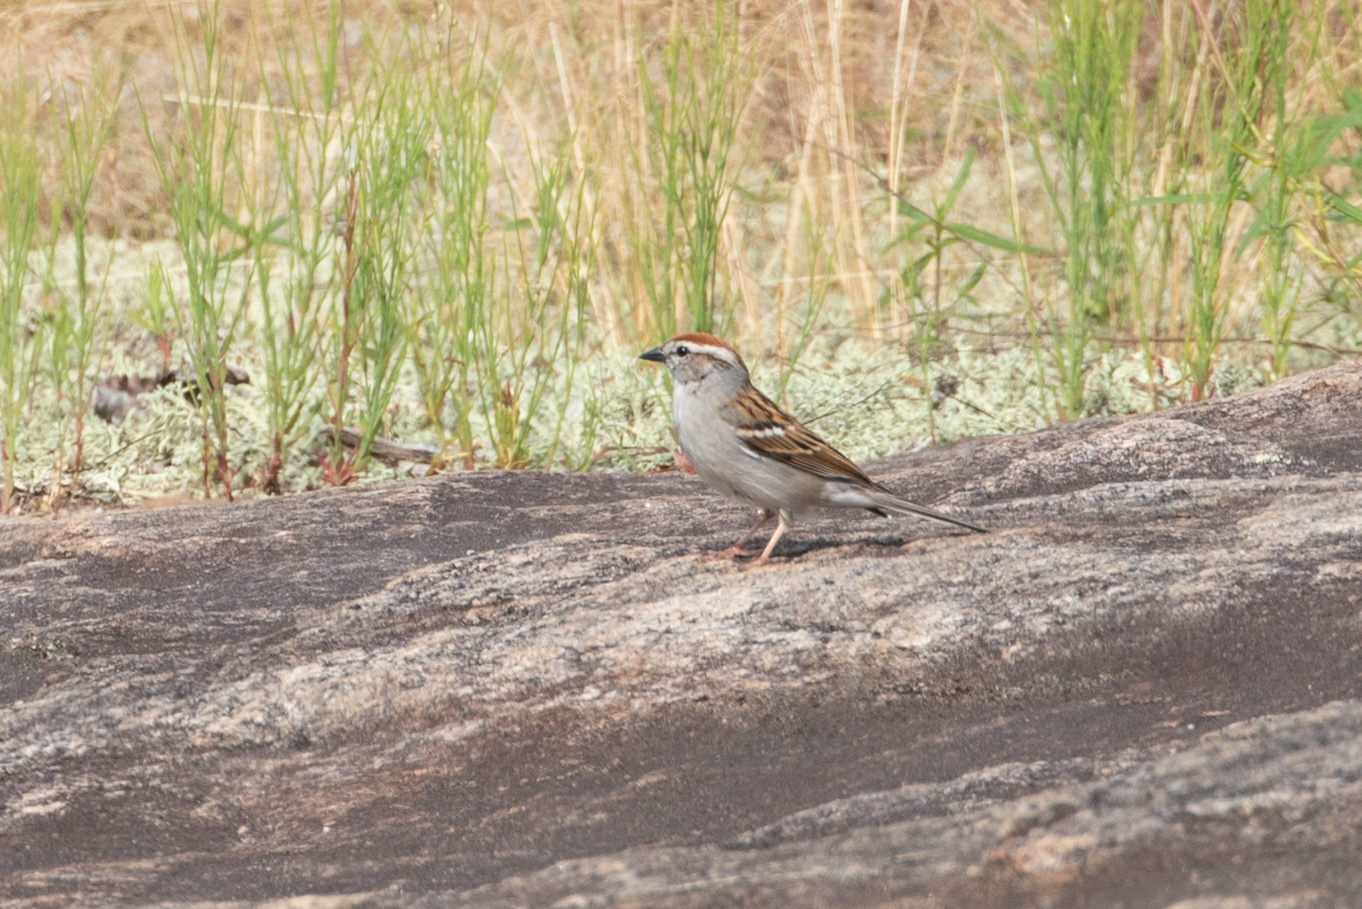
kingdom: Animalia
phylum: Chordata
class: Aves
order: Passeriformes
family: Passerellidae
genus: Spizella
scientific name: Spizella passerina
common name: Chipping sparrow
